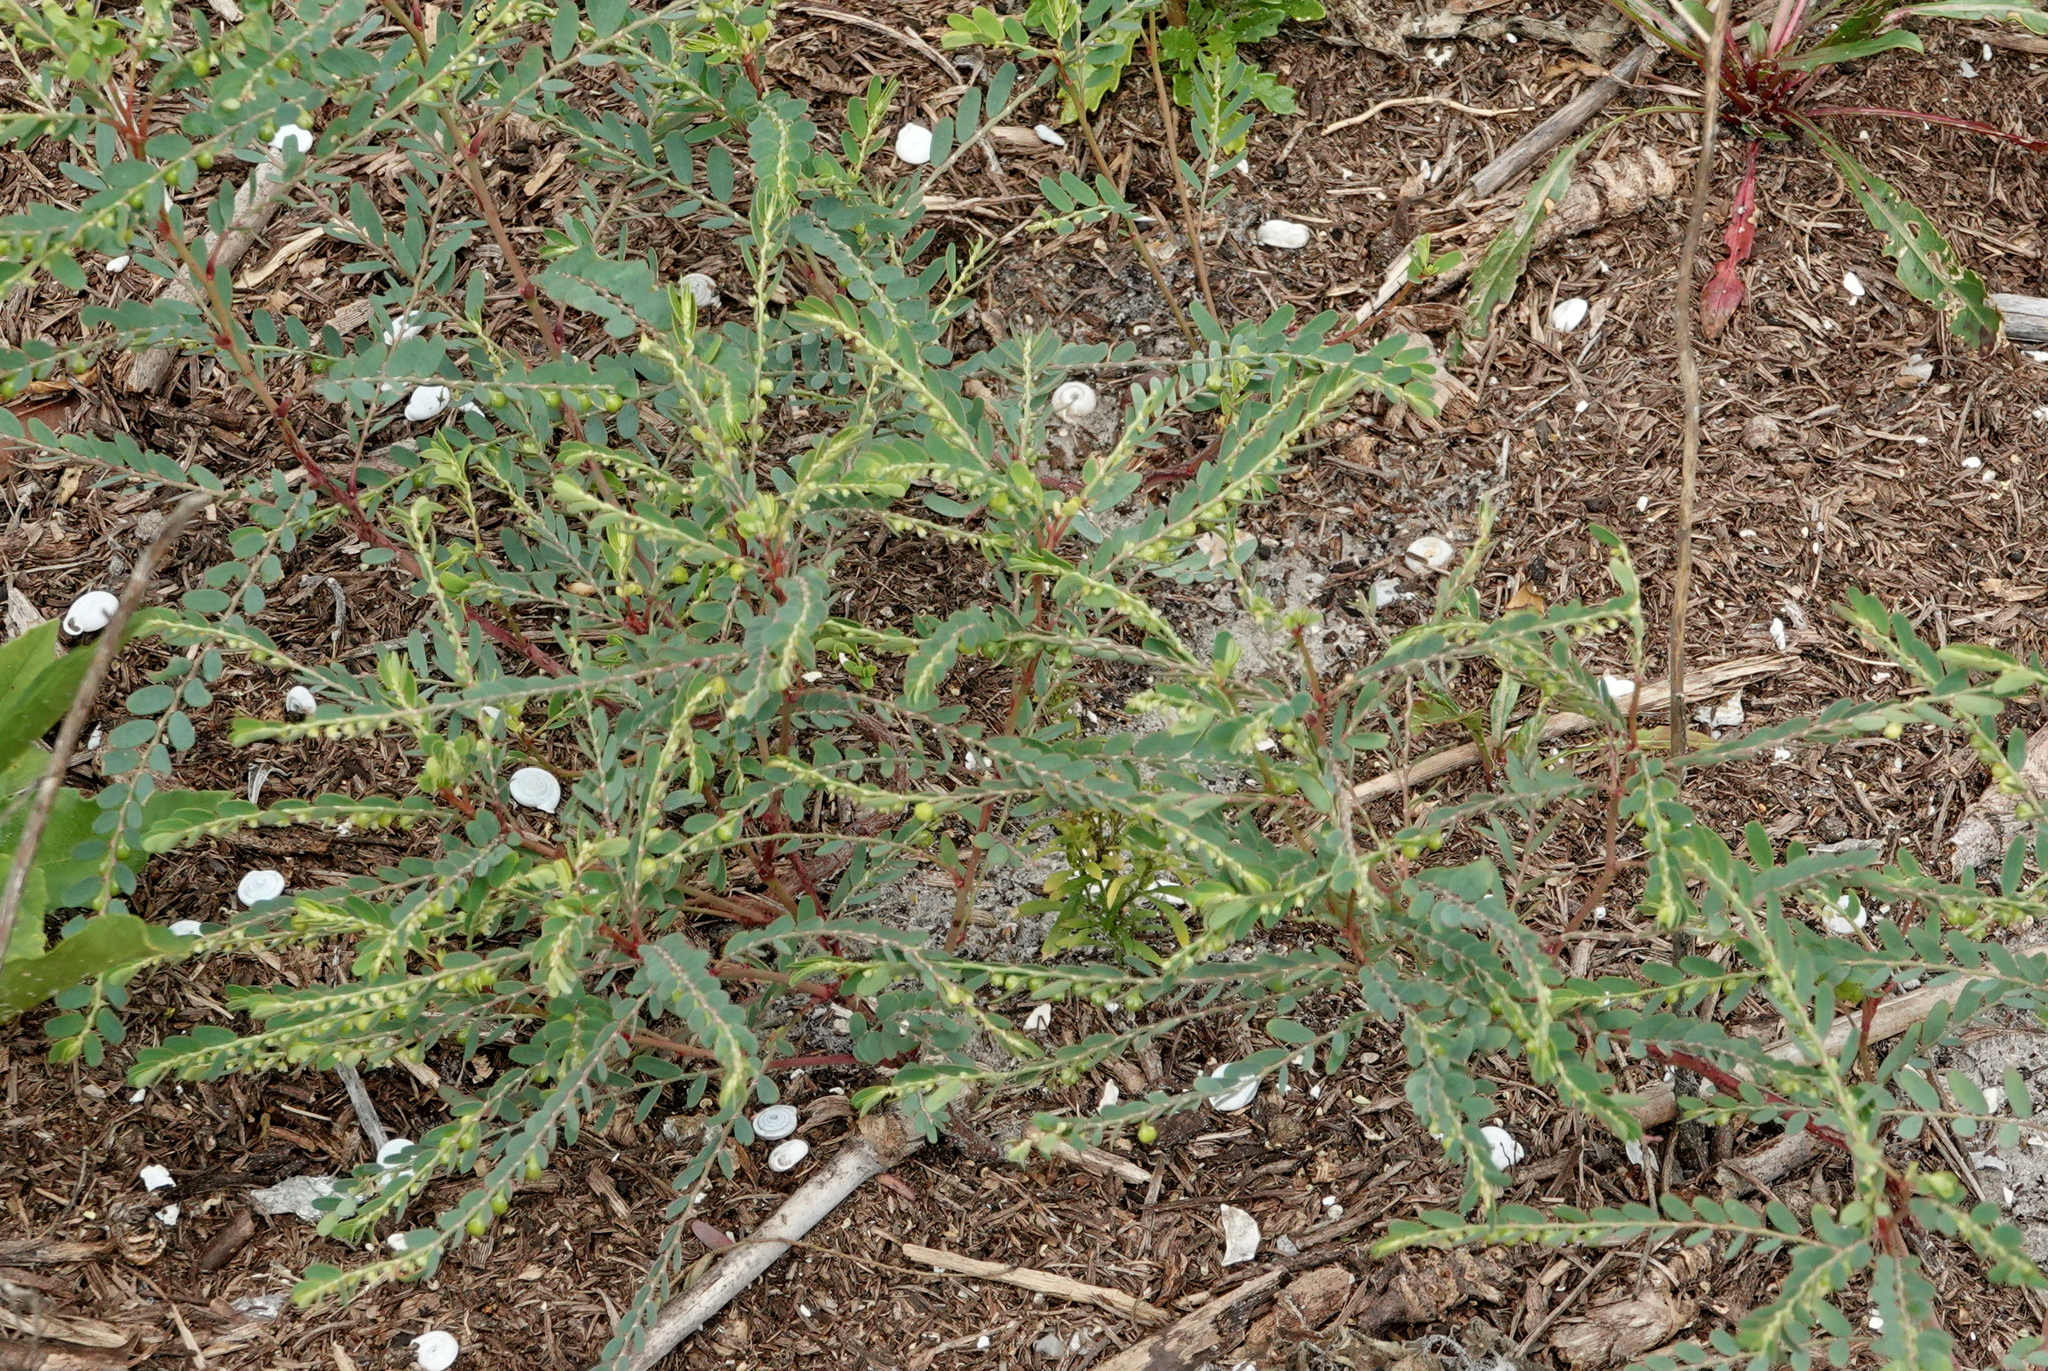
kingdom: Plantae
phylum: Tracheophyta
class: Magnoliopsida
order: Malpighiales
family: Phyllanthaceae
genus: Phyllanthus
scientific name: Phyllanthus urinaria
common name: Chamber bitter
